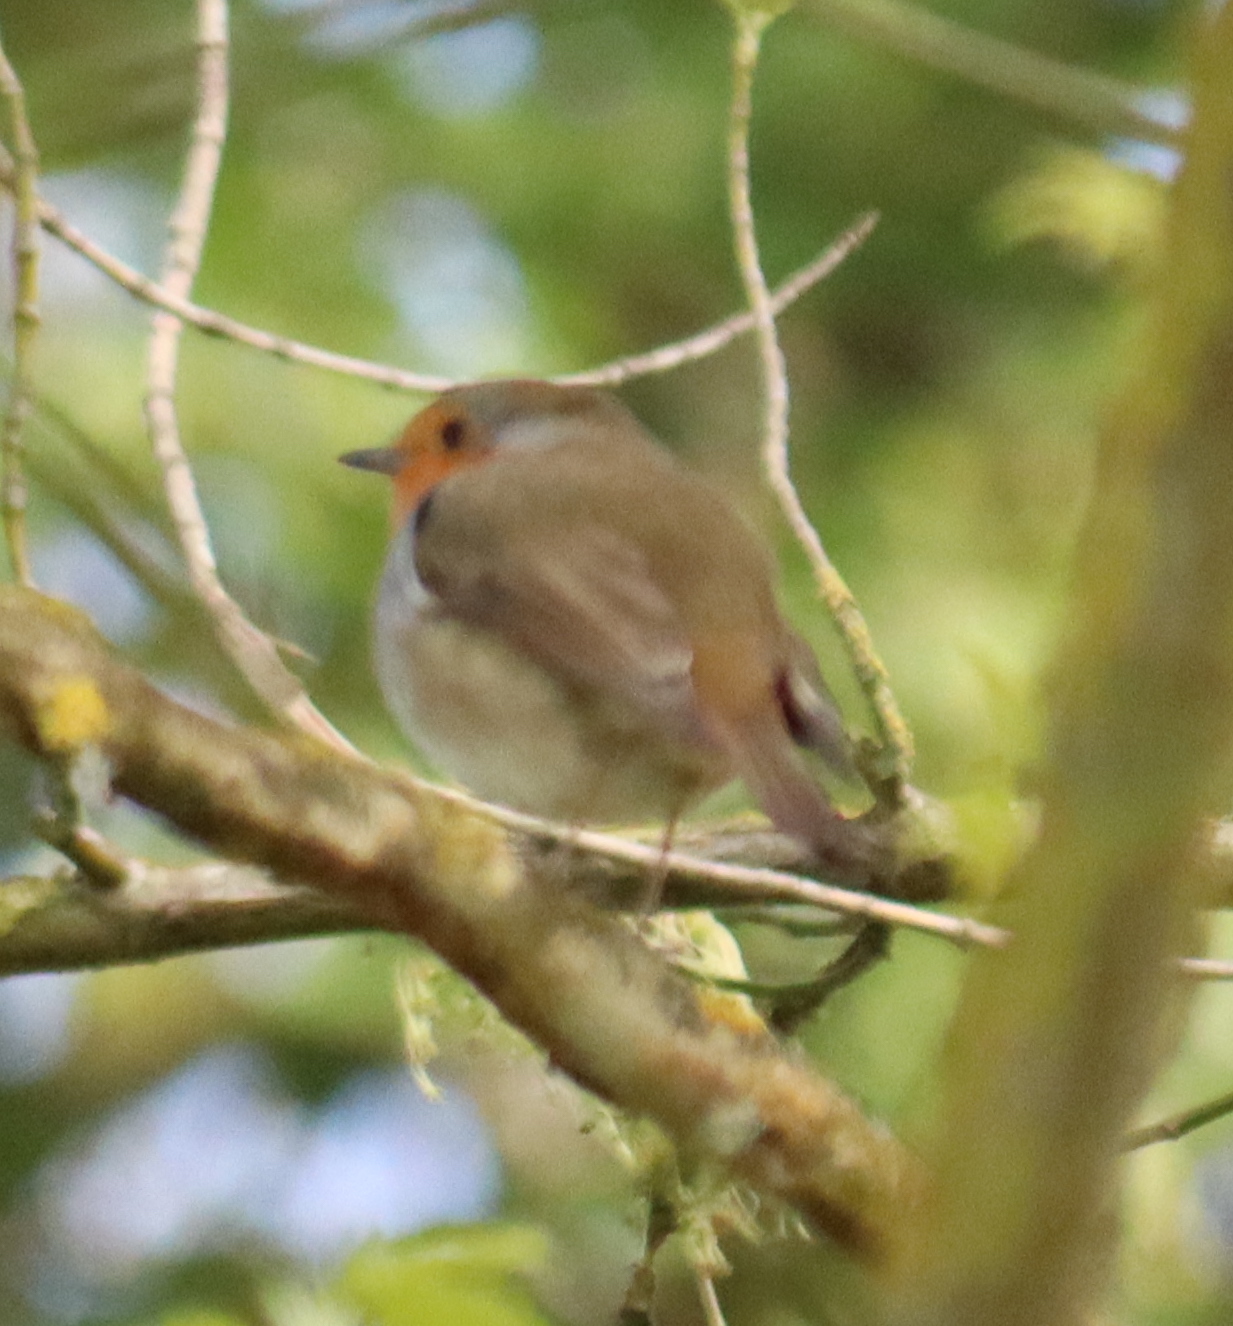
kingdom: Animalia
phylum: Chordata
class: Aves
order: Passeriformes
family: Muscicapidae
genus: Erithacus
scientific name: Erithacus rubecula
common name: European robin
